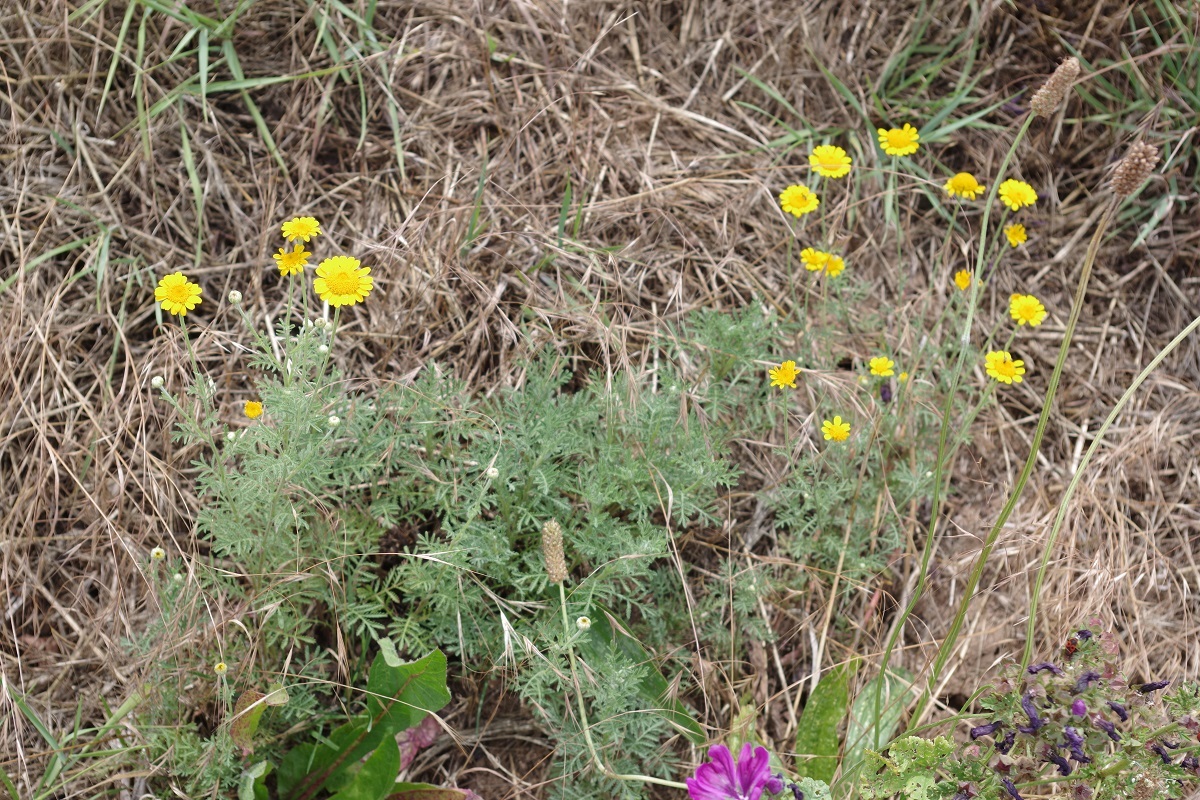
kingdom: Plantae
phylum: Tracheophyta
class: Magnoliopsida
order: Asterales
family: Asteraceae
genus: Cota
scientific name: Cota tinctoria
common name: Golden chamomile
